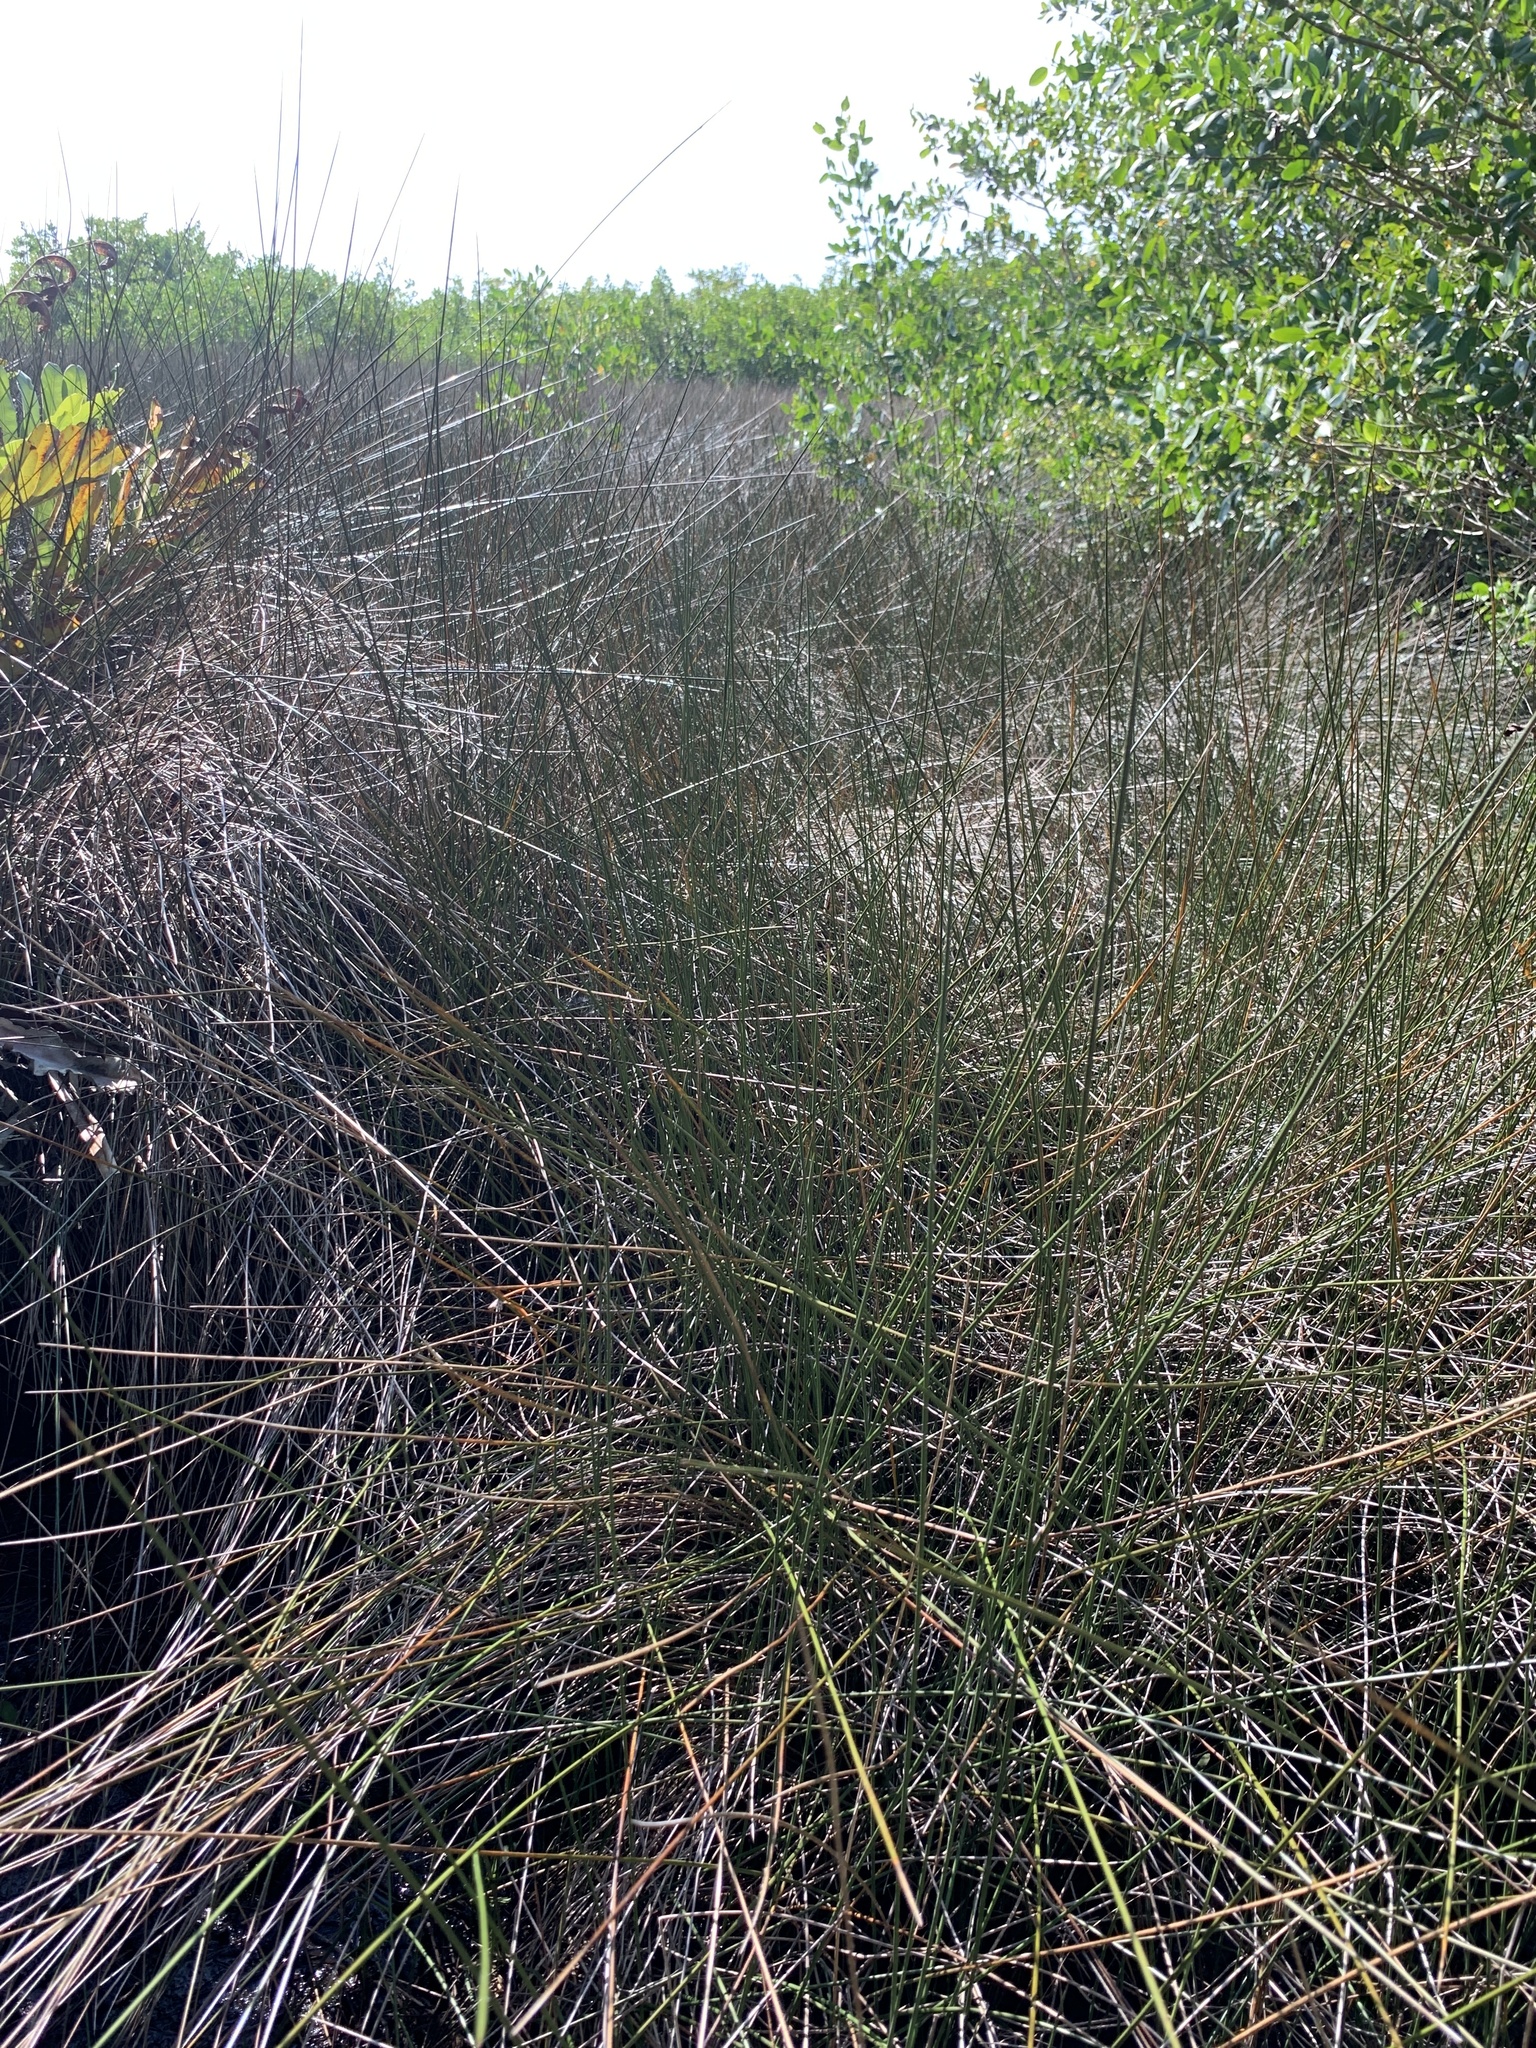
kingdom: Plantae
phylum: Tracheophyta
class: Liliopsida
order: Poales
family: Juncaceae
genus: Juncus
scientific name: Juncus roemerianus
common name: Roemer's rush
